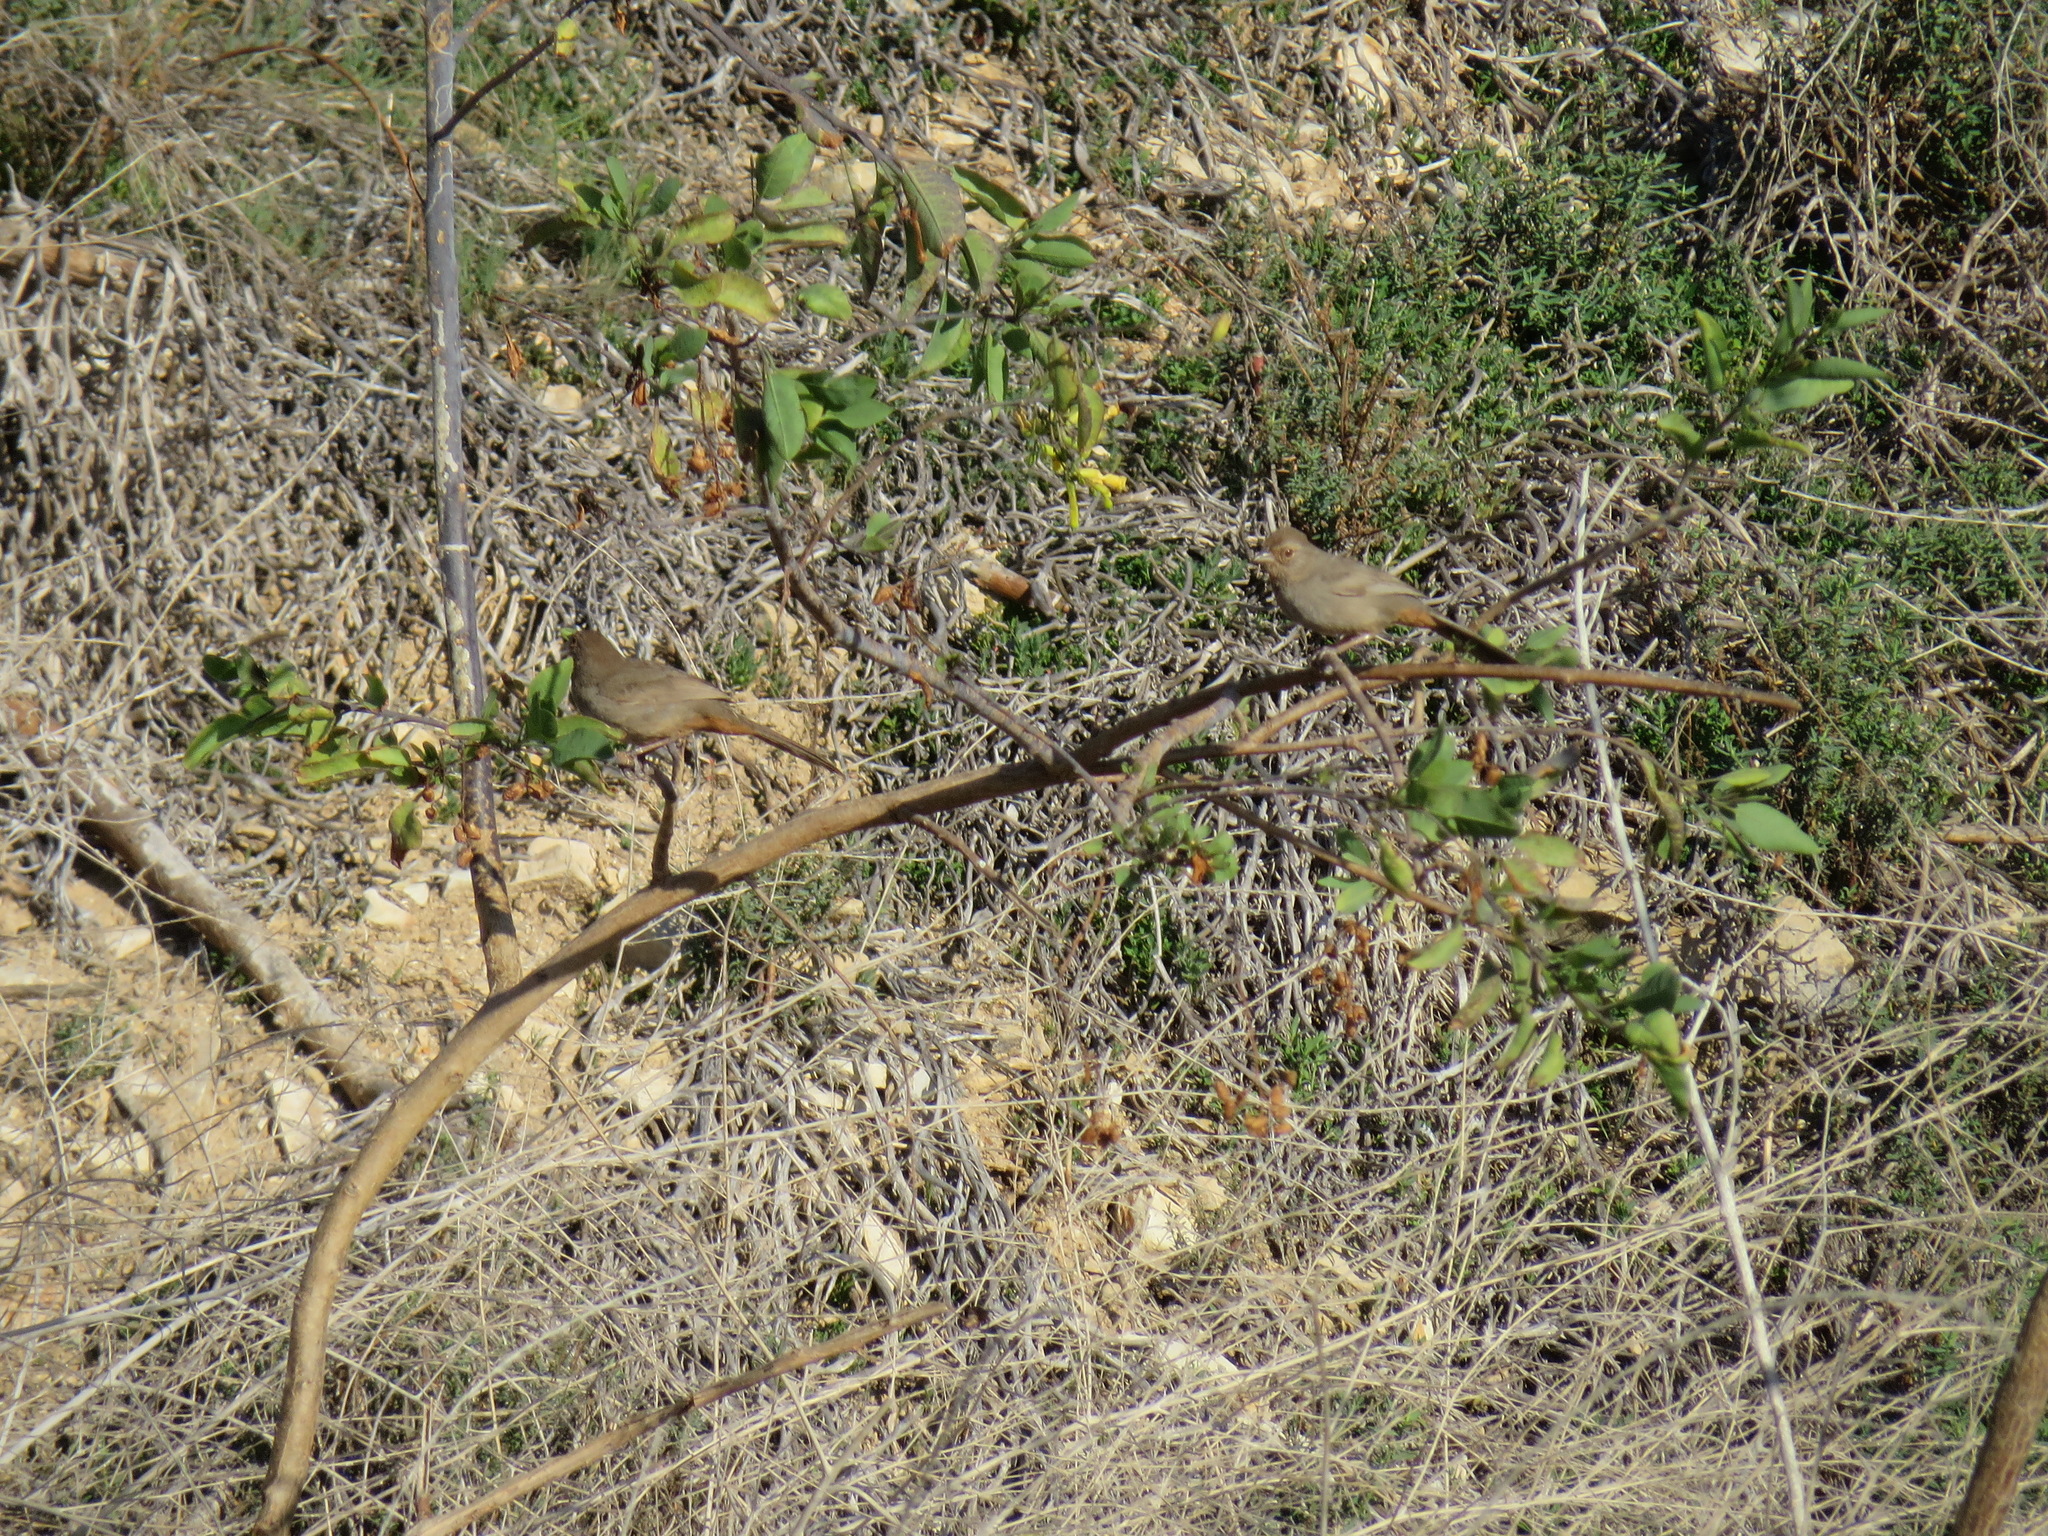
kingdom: Animalia
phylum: Chordata
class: Aves
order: Passeriformes
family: Passerellidae
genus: Melozone
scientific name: Melozone crissalis
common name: California towhee
